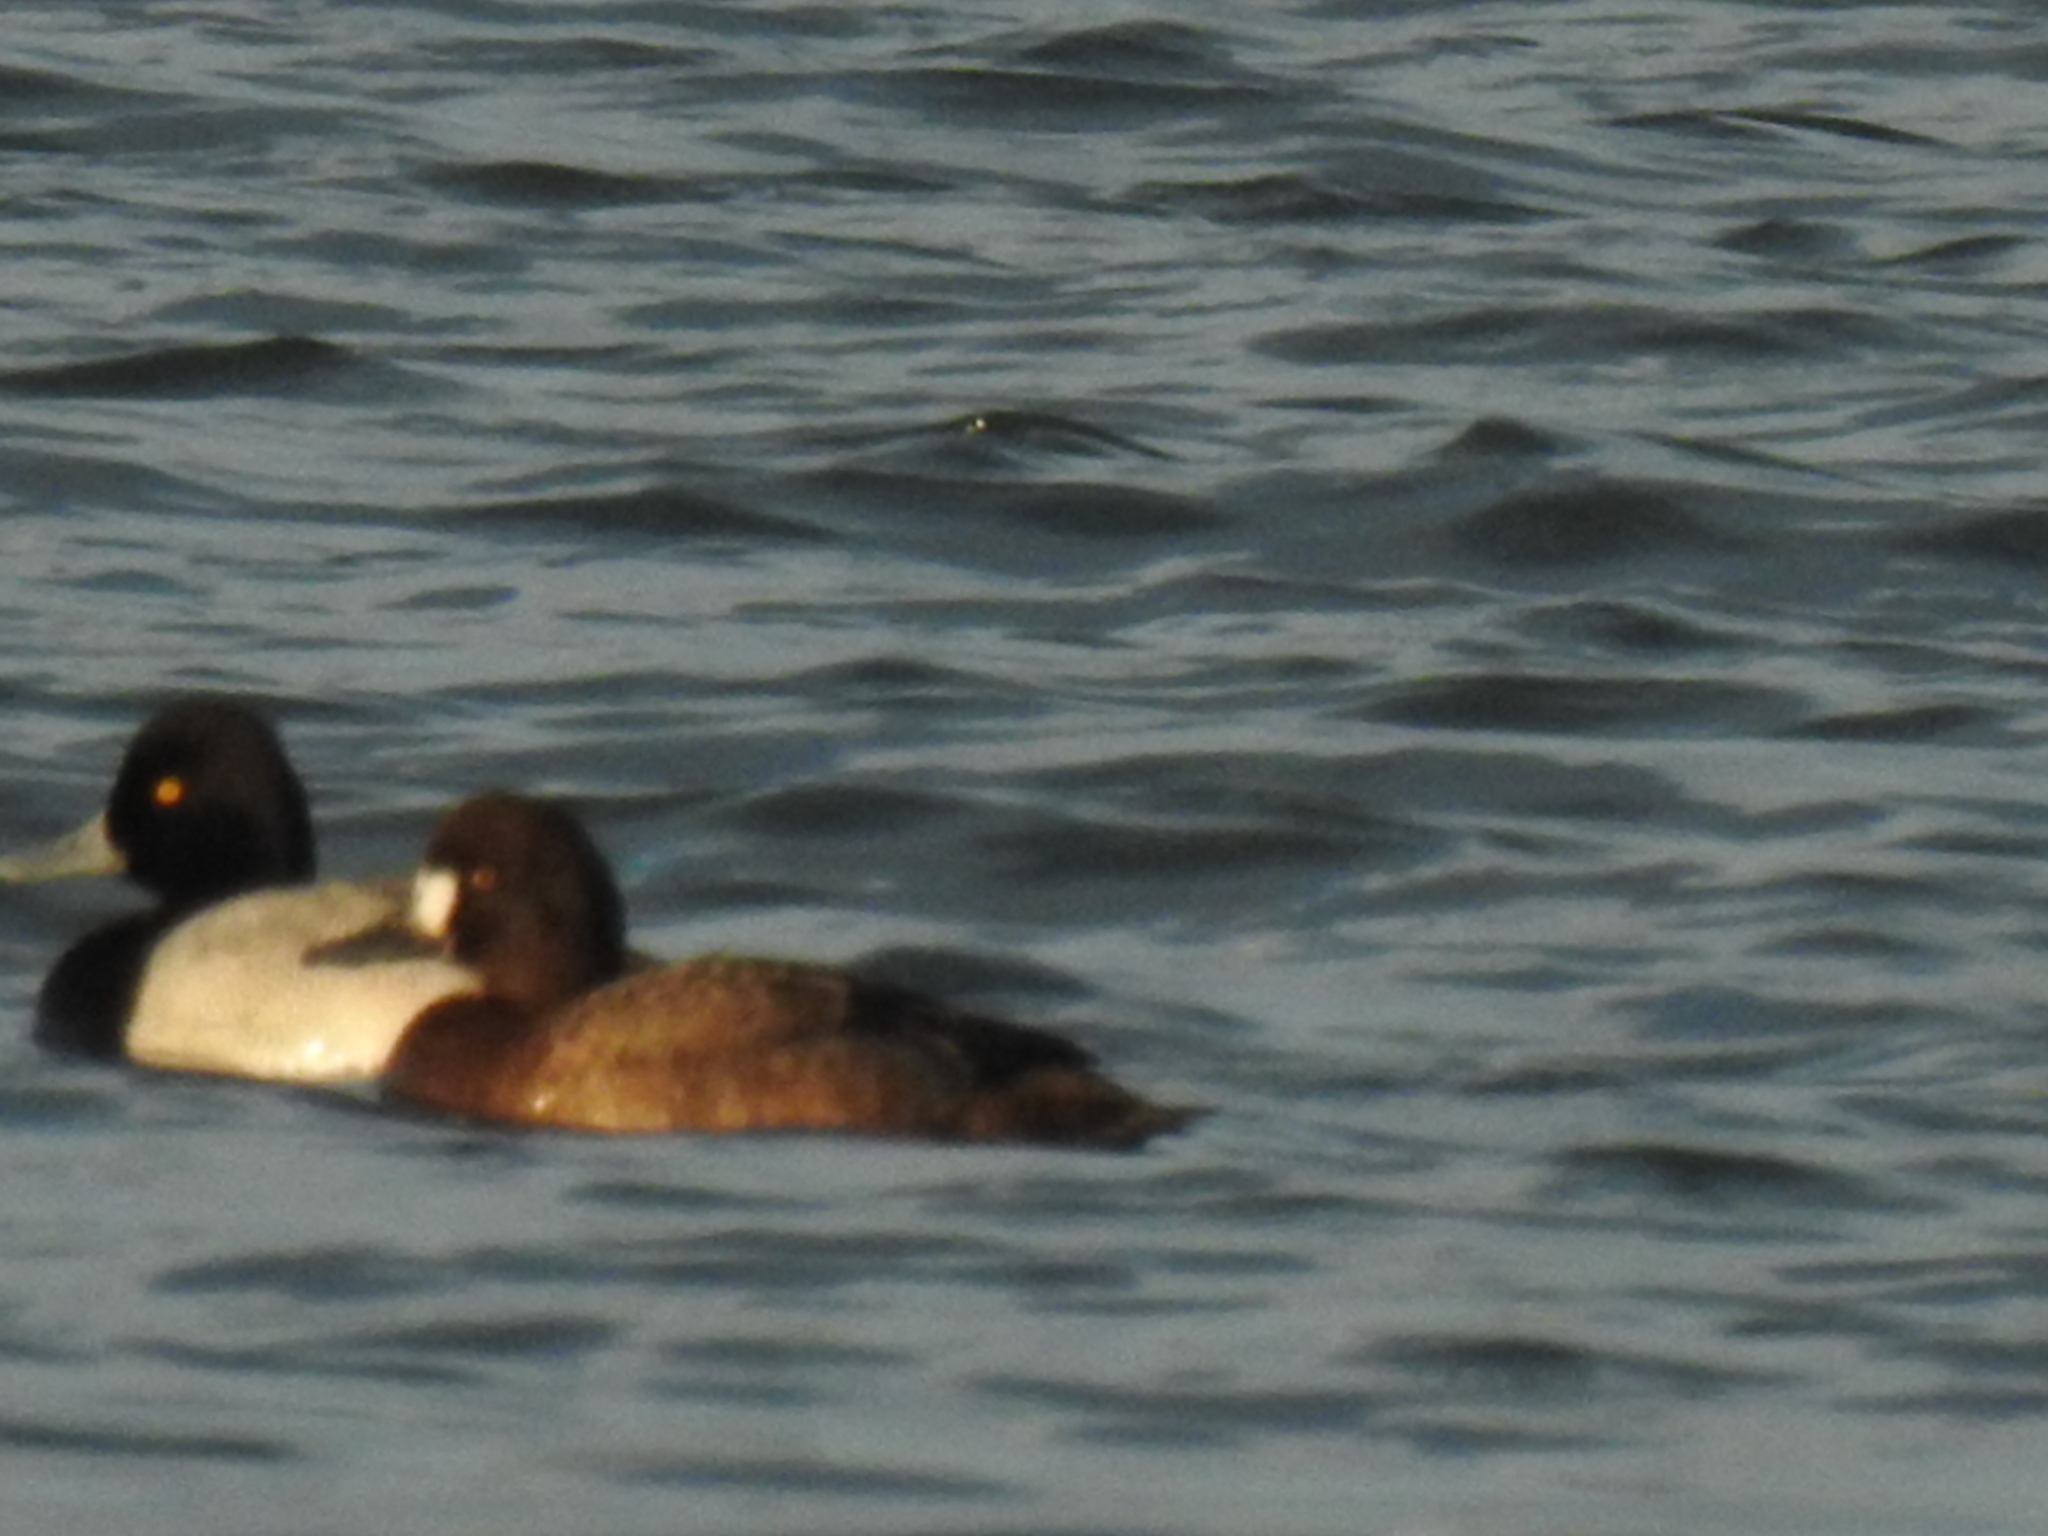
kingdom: Animalia
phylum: Chordata
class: Aves
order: Anseriformes
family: Anatidae
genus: Aythya
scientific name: Aythya affinis
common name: Lesser scaup
